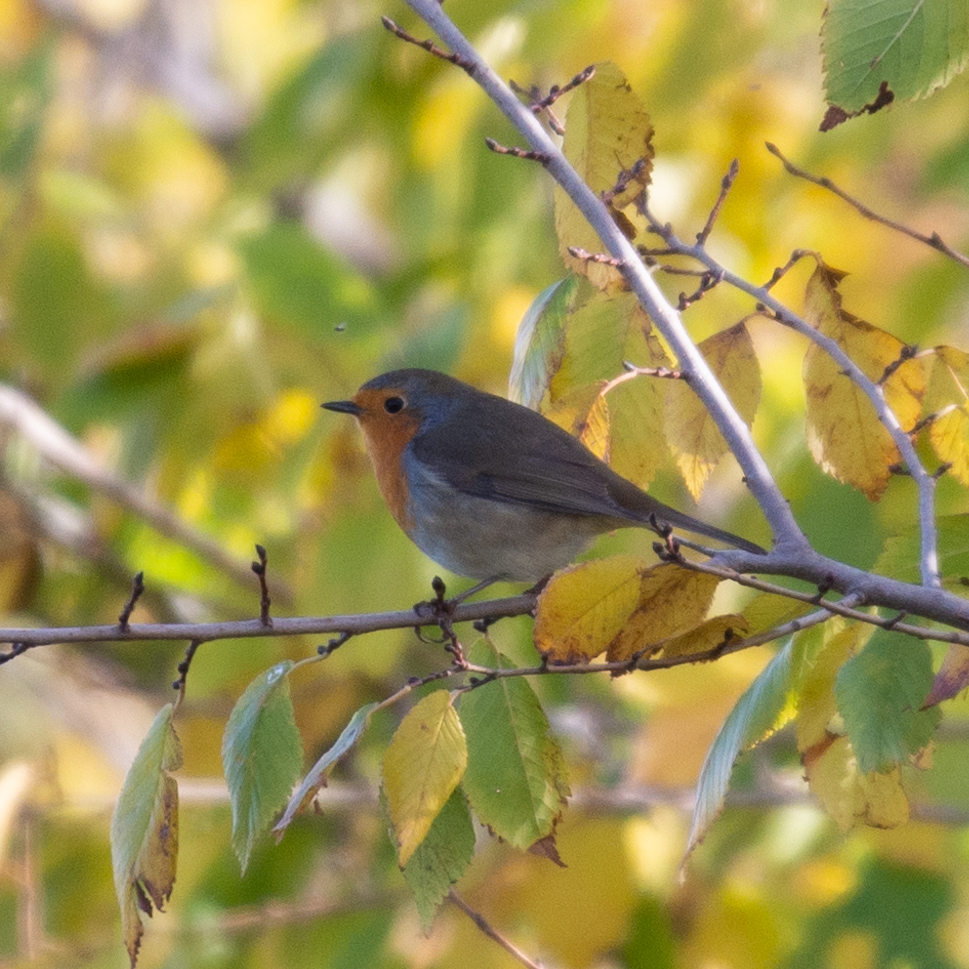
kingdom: Animalia
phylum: Chordata
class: Aves
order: Passeriformes
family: Muscicapidae
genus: Erithacus
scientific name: Erithacus rubecula
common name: European robin
